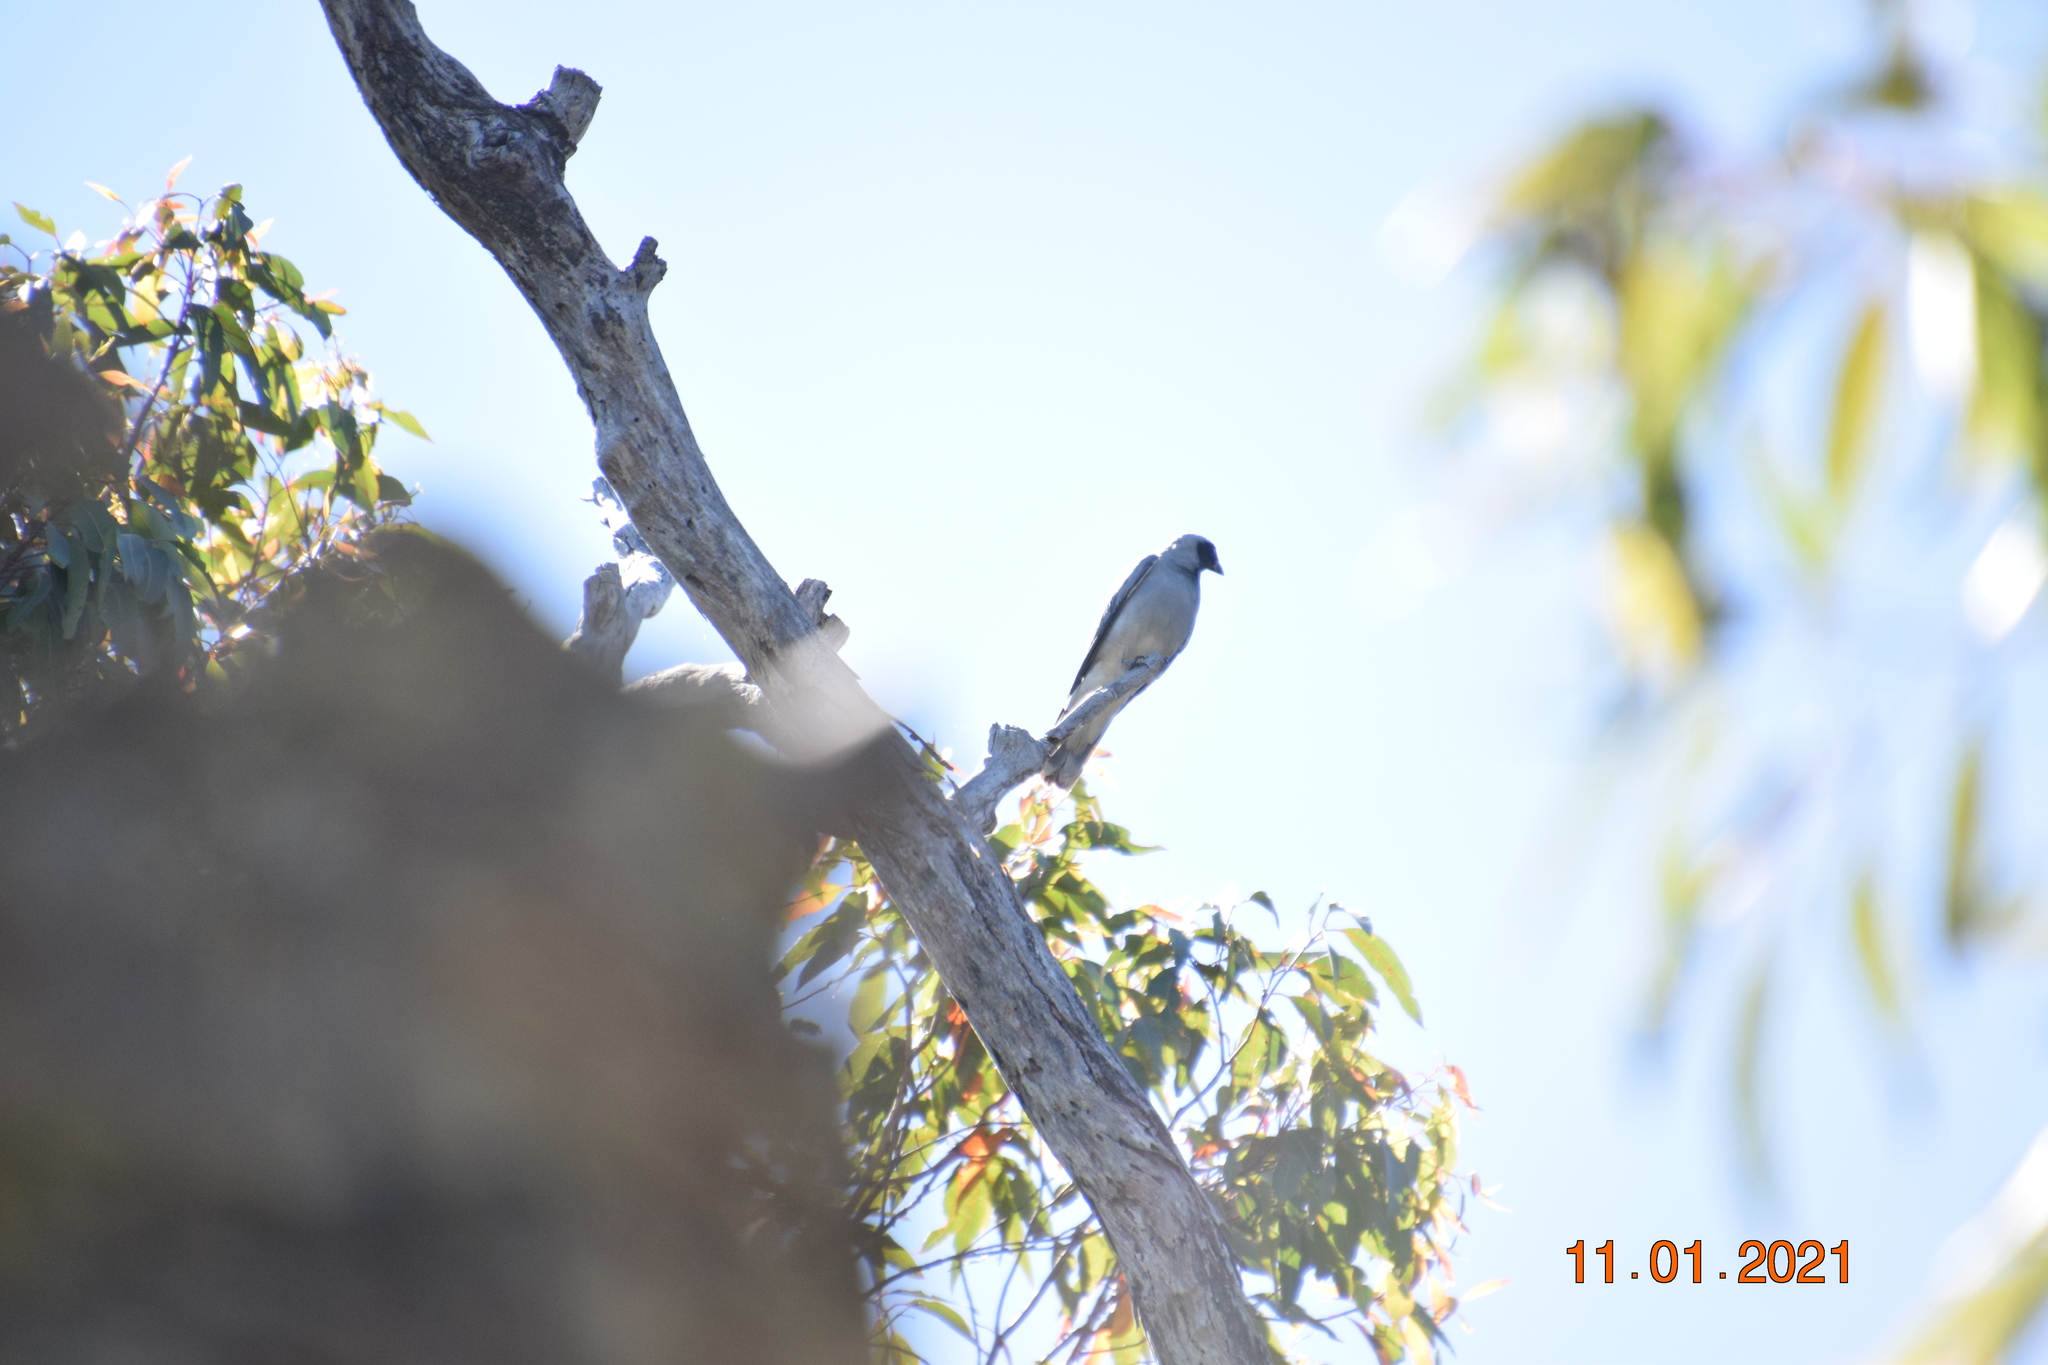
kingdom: Animalia
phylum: Chordata
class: Aves
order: Passeriformes
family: Campephagidae
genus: Coracina
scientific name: Coracina novaehollandiae
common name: Black-faced cuckooshrike
